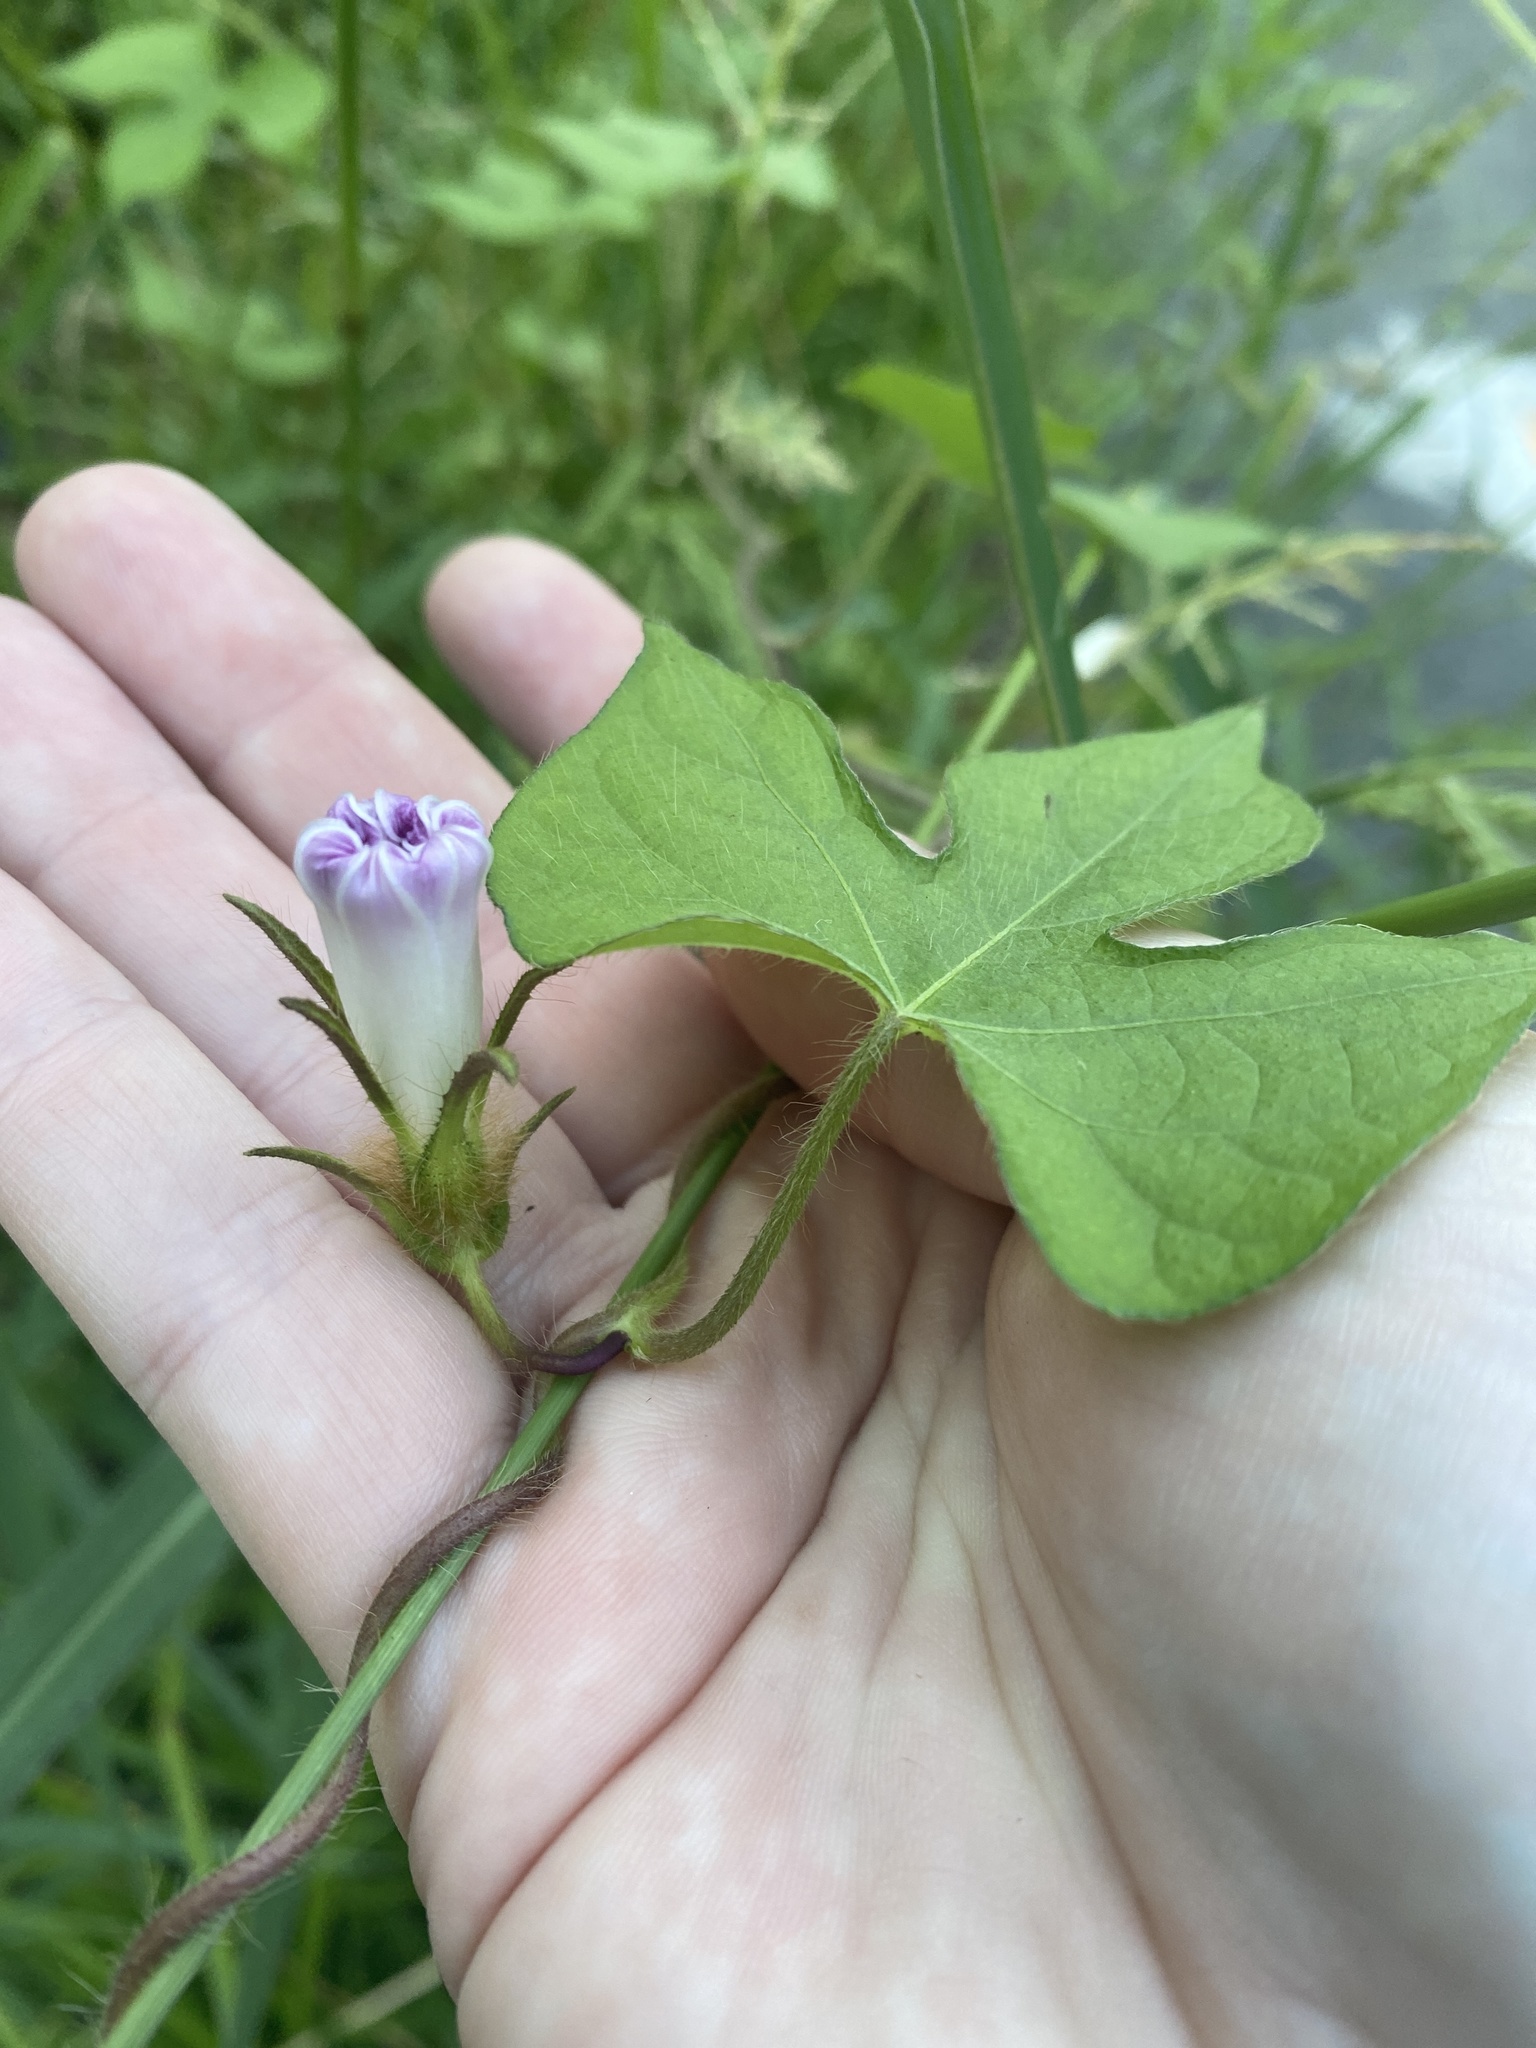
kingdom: Plantae
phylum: Tracheophyta
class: Magnoliopsida
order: Solanales
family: Convolvulaceae
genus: Ipomoea
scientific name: Ipomoea hederacea
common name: Ivy-leaved morning-glory
